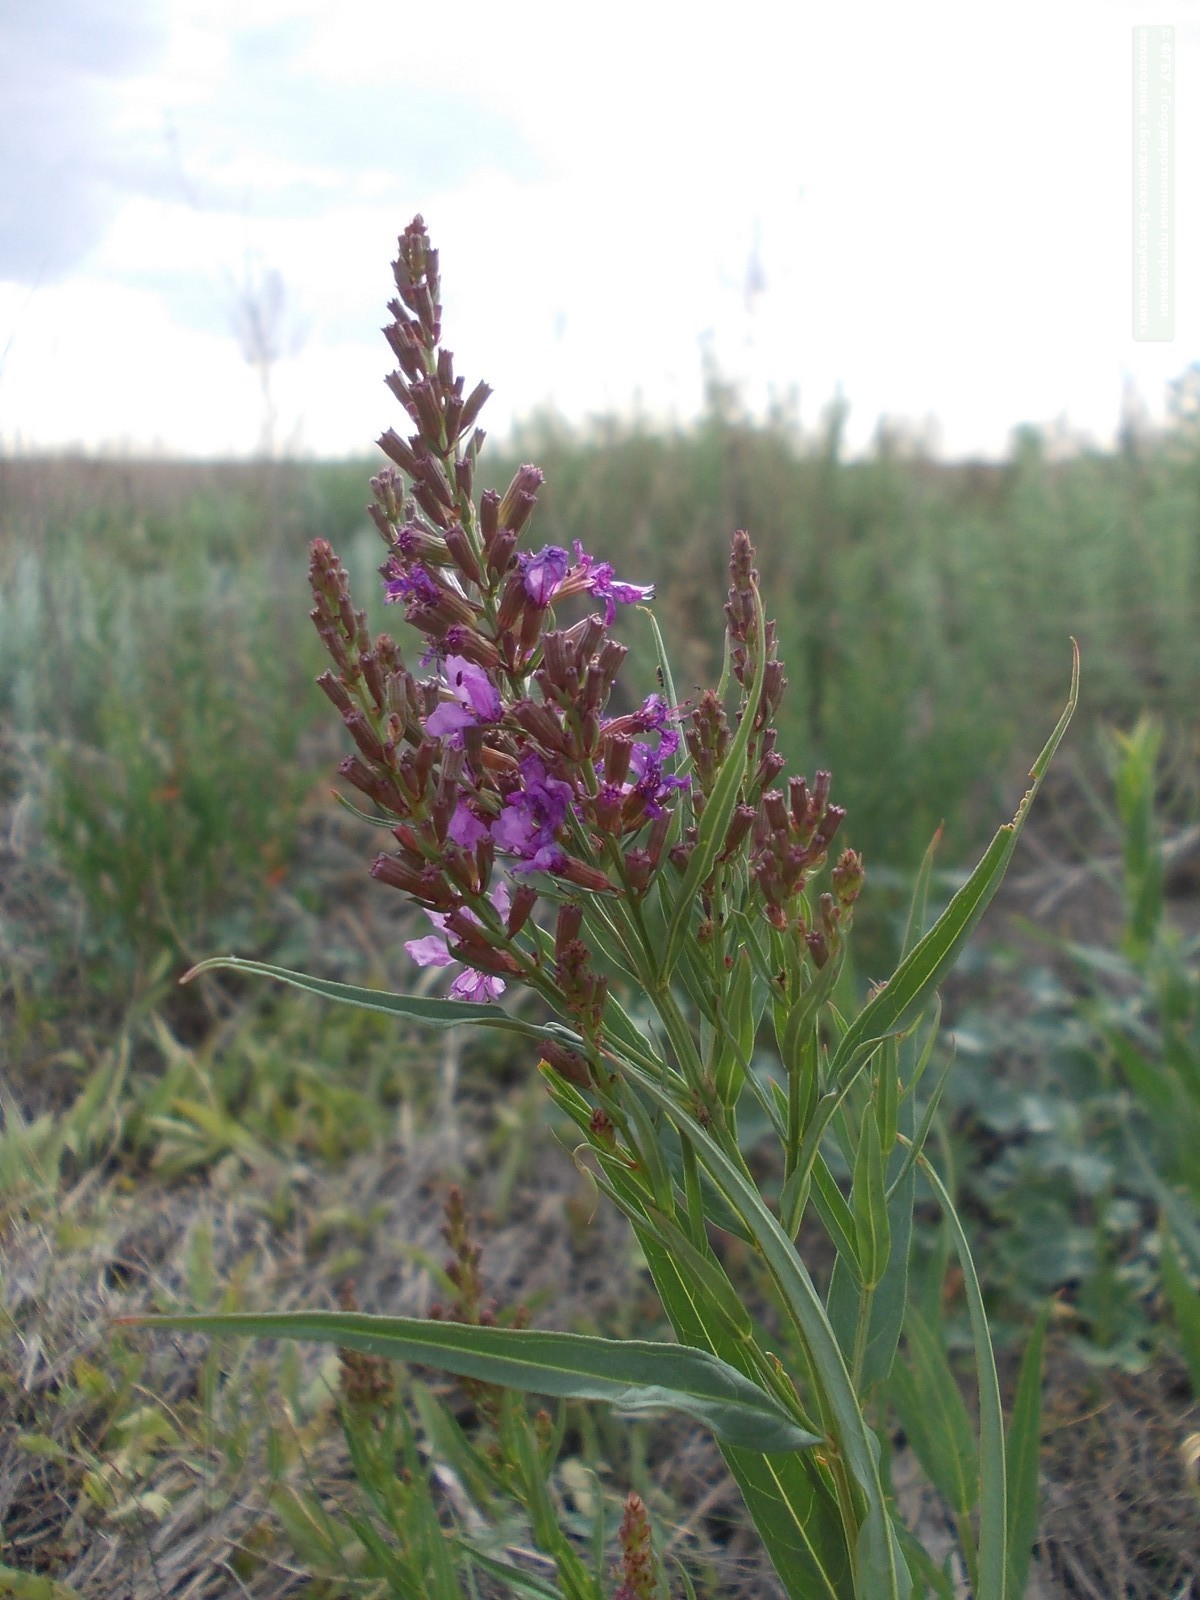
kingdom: Plantae
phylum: Tracheophyta
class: Magnoliopsida
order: Myrtales
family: Lythraceae
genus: Lythrum
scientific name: Lythrum virgatum
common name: European wand loosestrife
